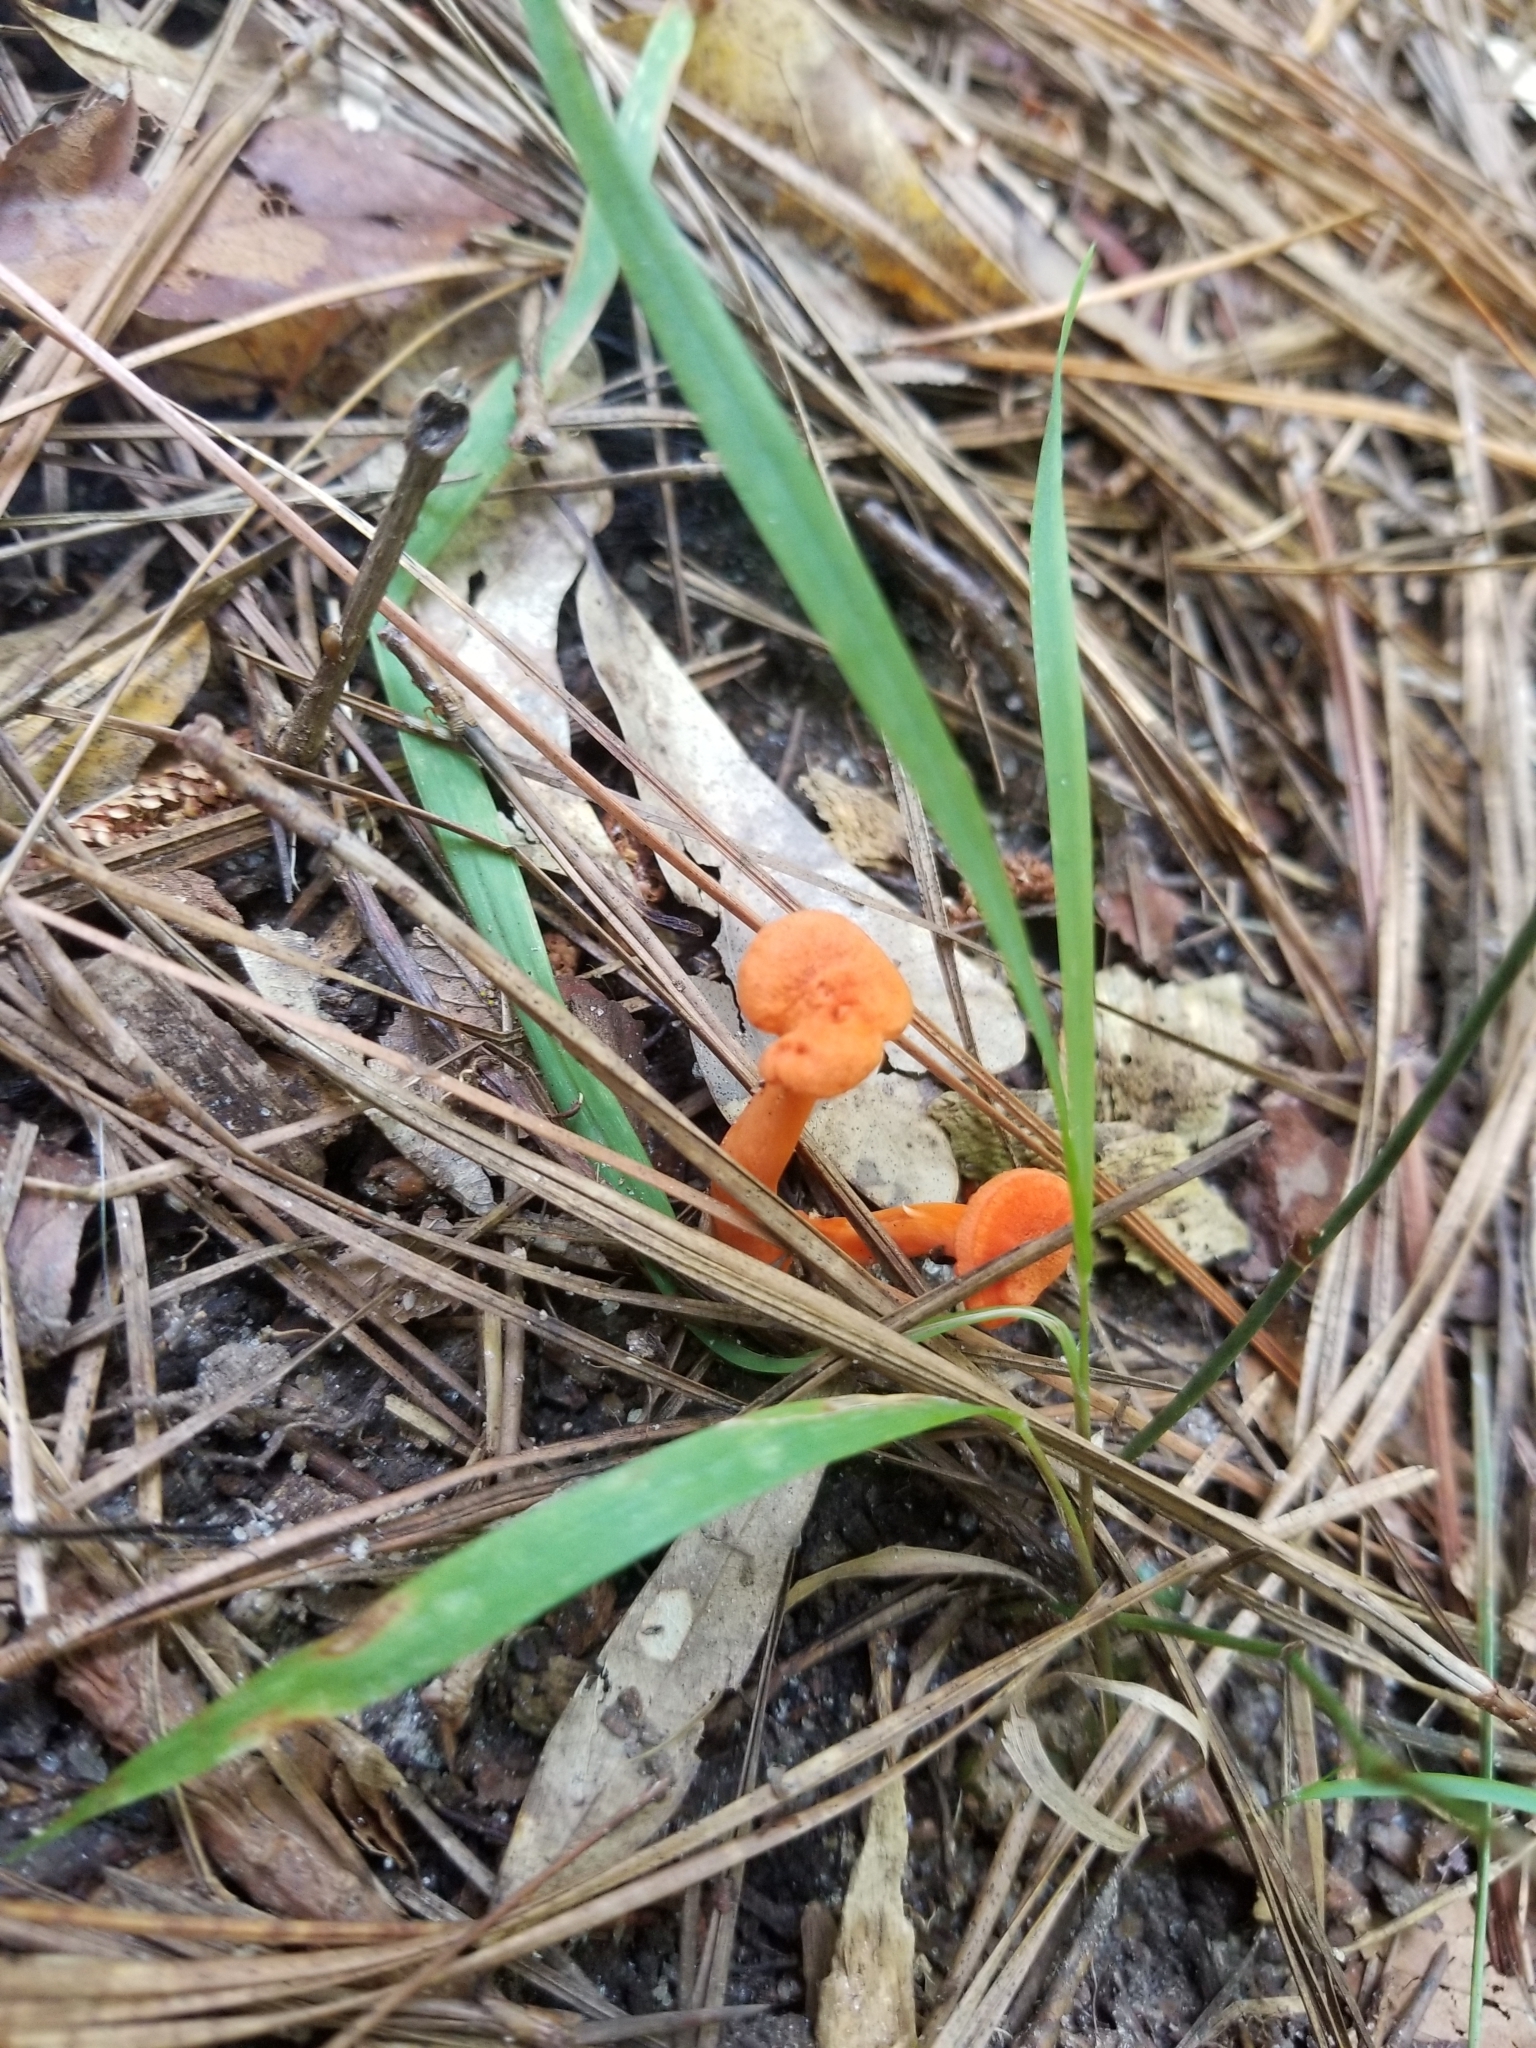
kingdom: Fungi
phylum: Basidiomycota
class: Agaricomycetes
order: Cantharellales
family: Hydnaceae
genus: Cantharellus
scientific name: Cantharellus cinnabarinus
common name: Cinnabar chanterelle
